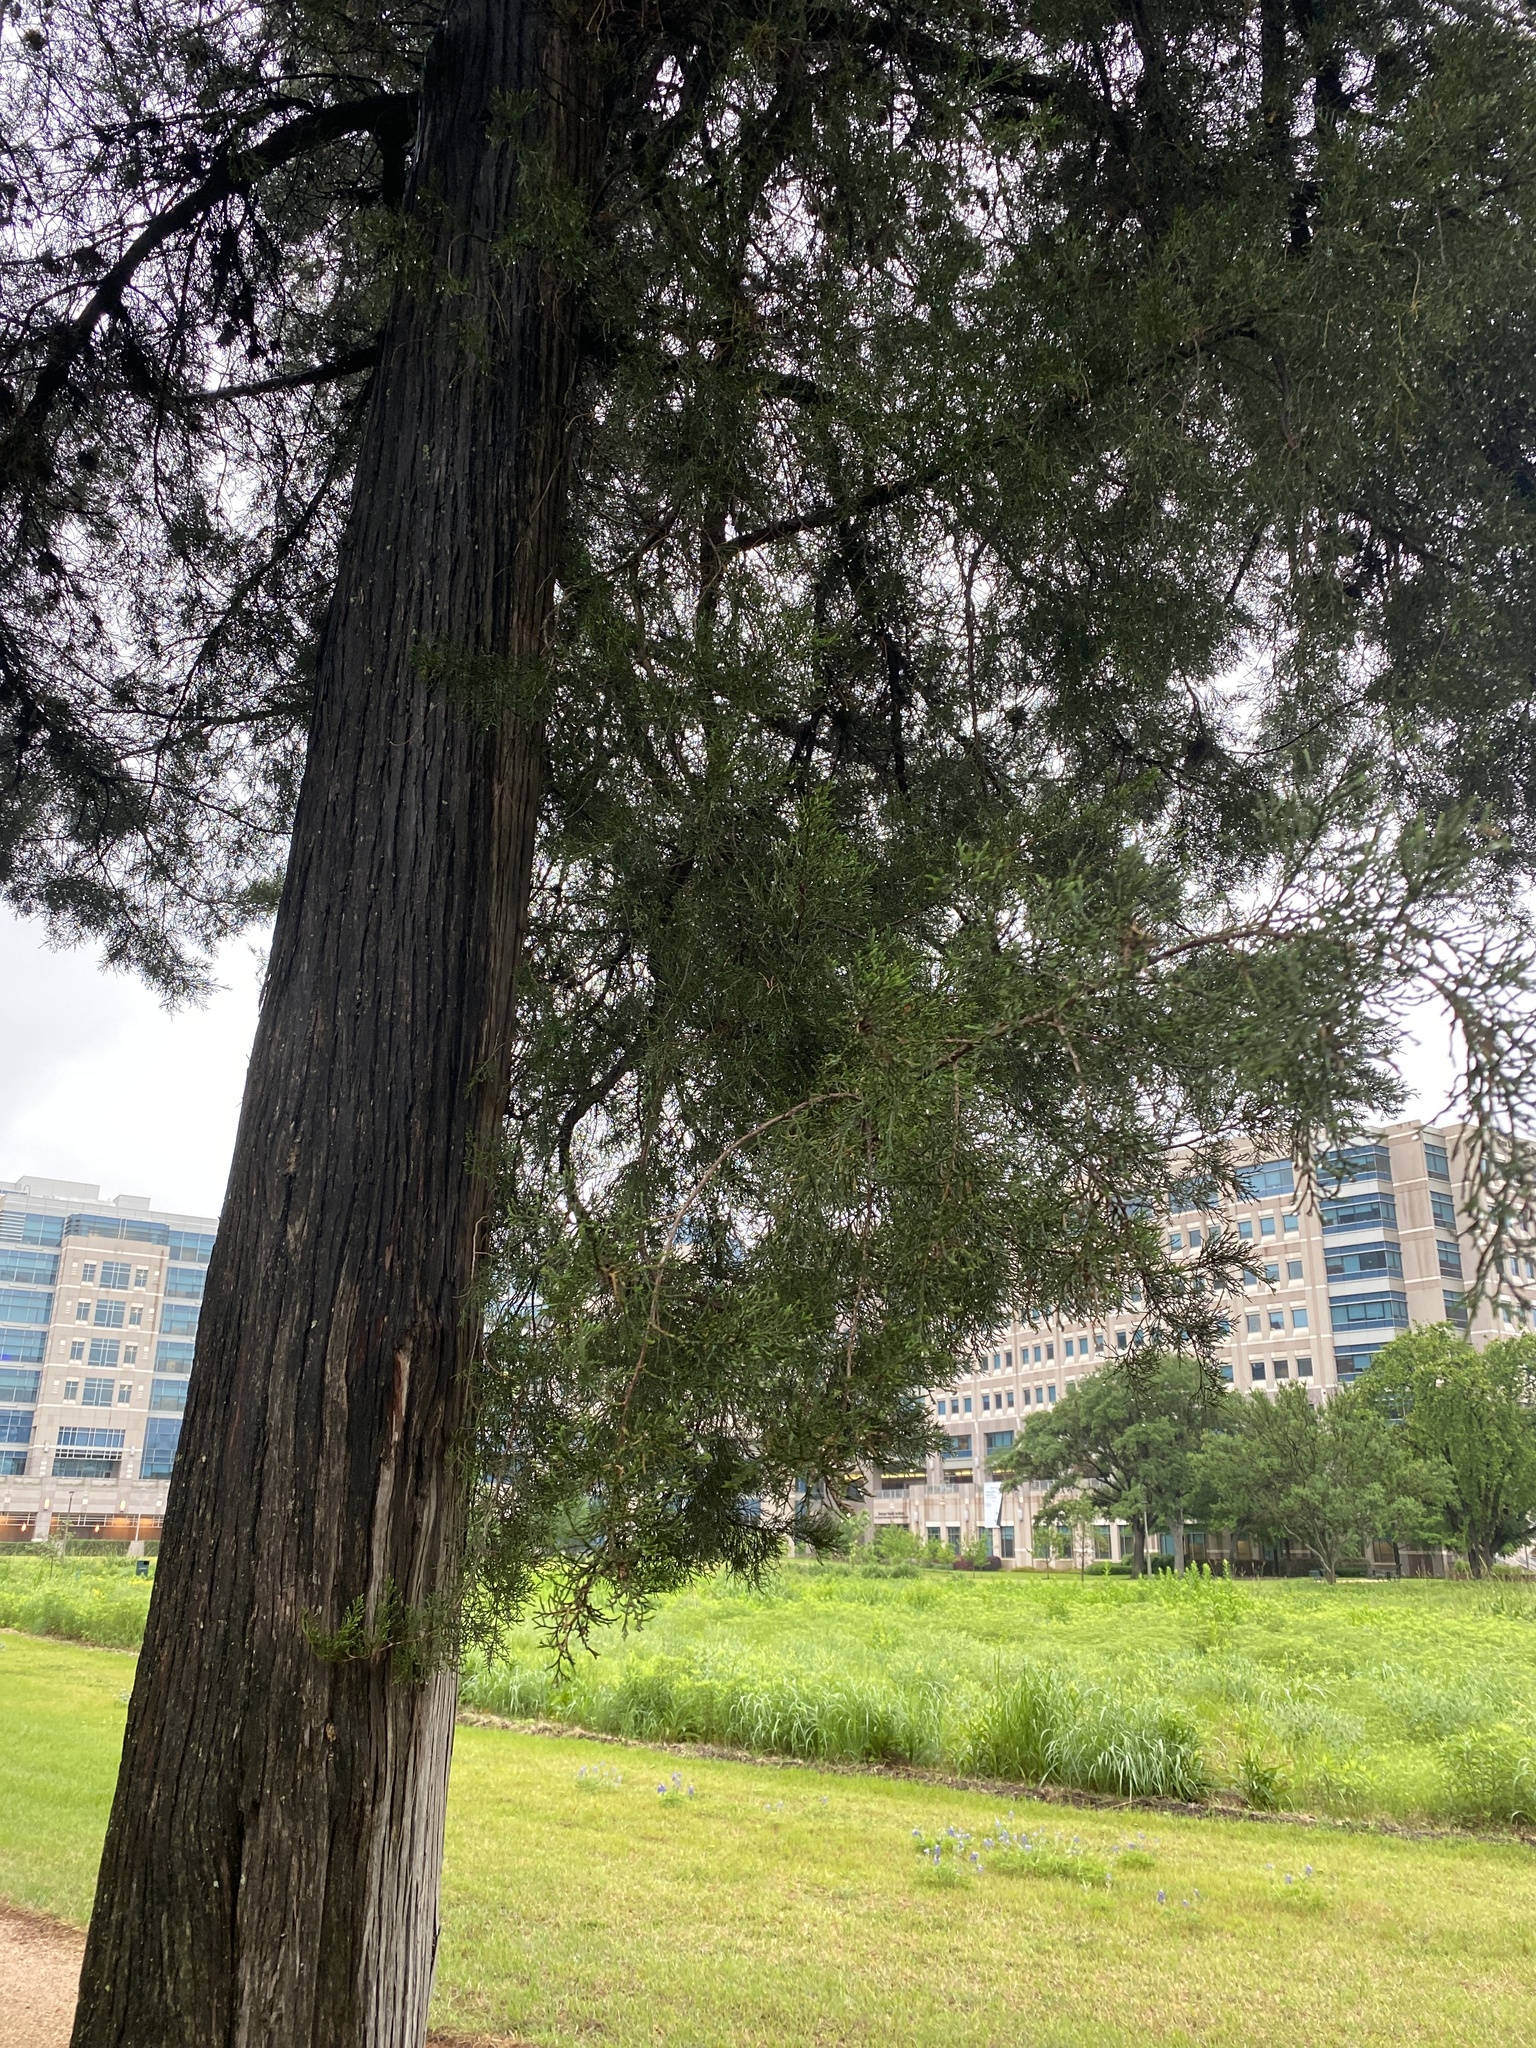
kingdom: Plantae
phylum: Tracheophyta
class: Pinopsida
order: Pinales
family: Cupressaceae
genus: Juniperus
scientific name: Juniperus virginiana
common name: Red juniper
